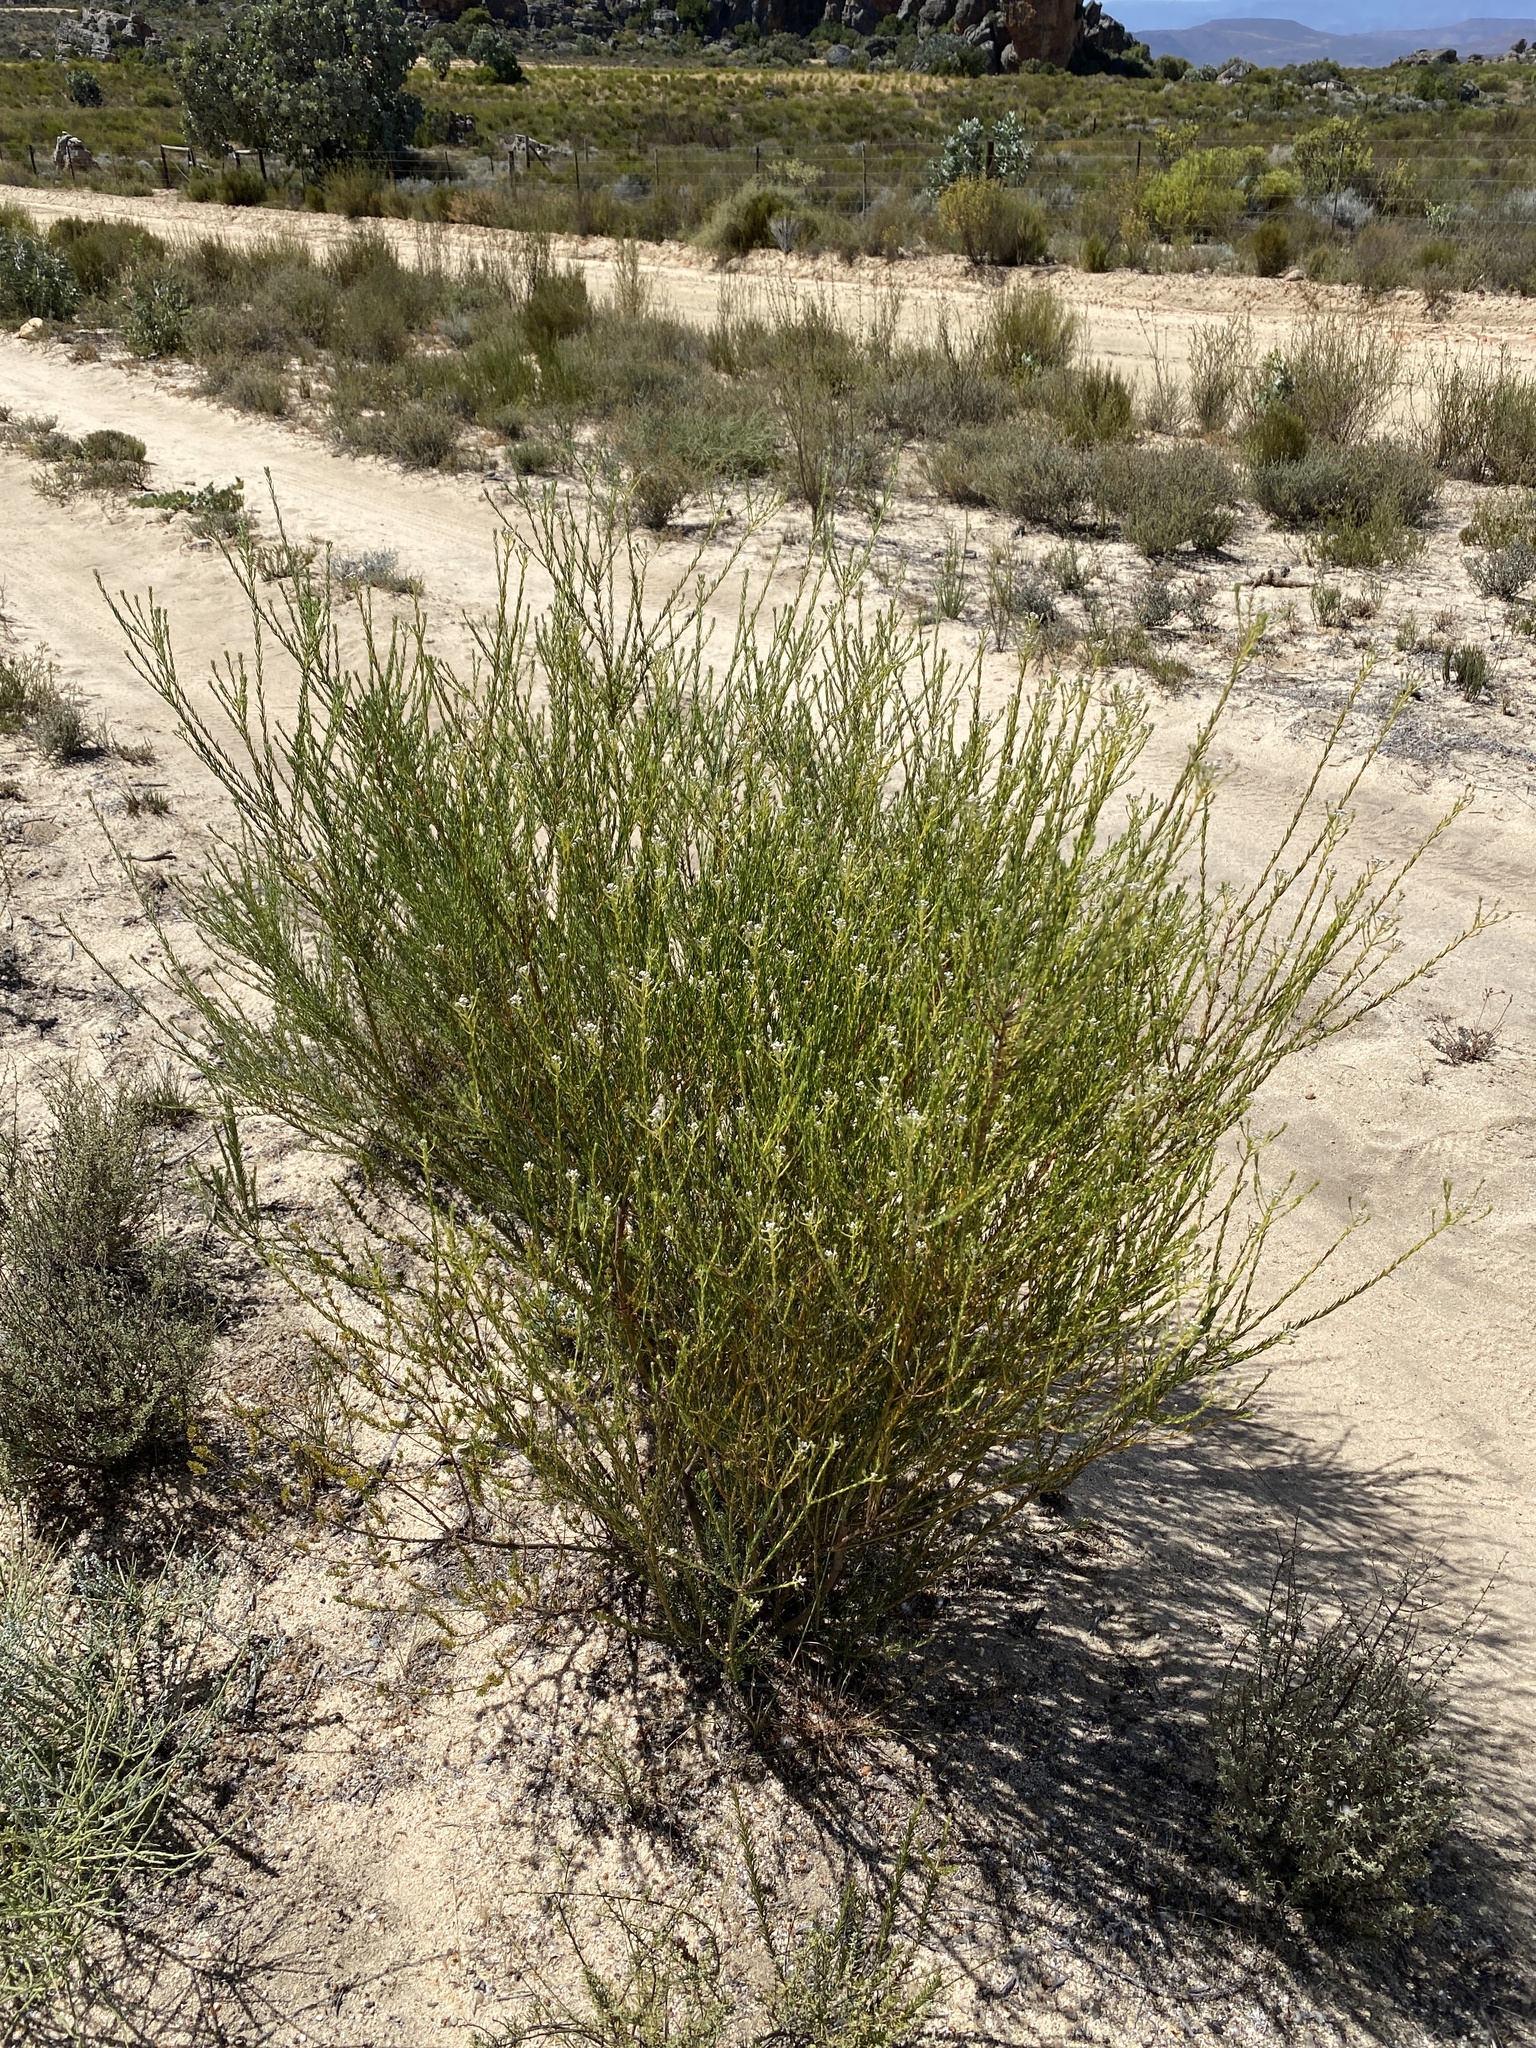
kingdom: Plantae
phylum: Tracheophyta
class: Magnoliopsida
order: Rosales
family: Rhamnaceae
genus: Phylica
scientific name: Phylica cryptandroides
